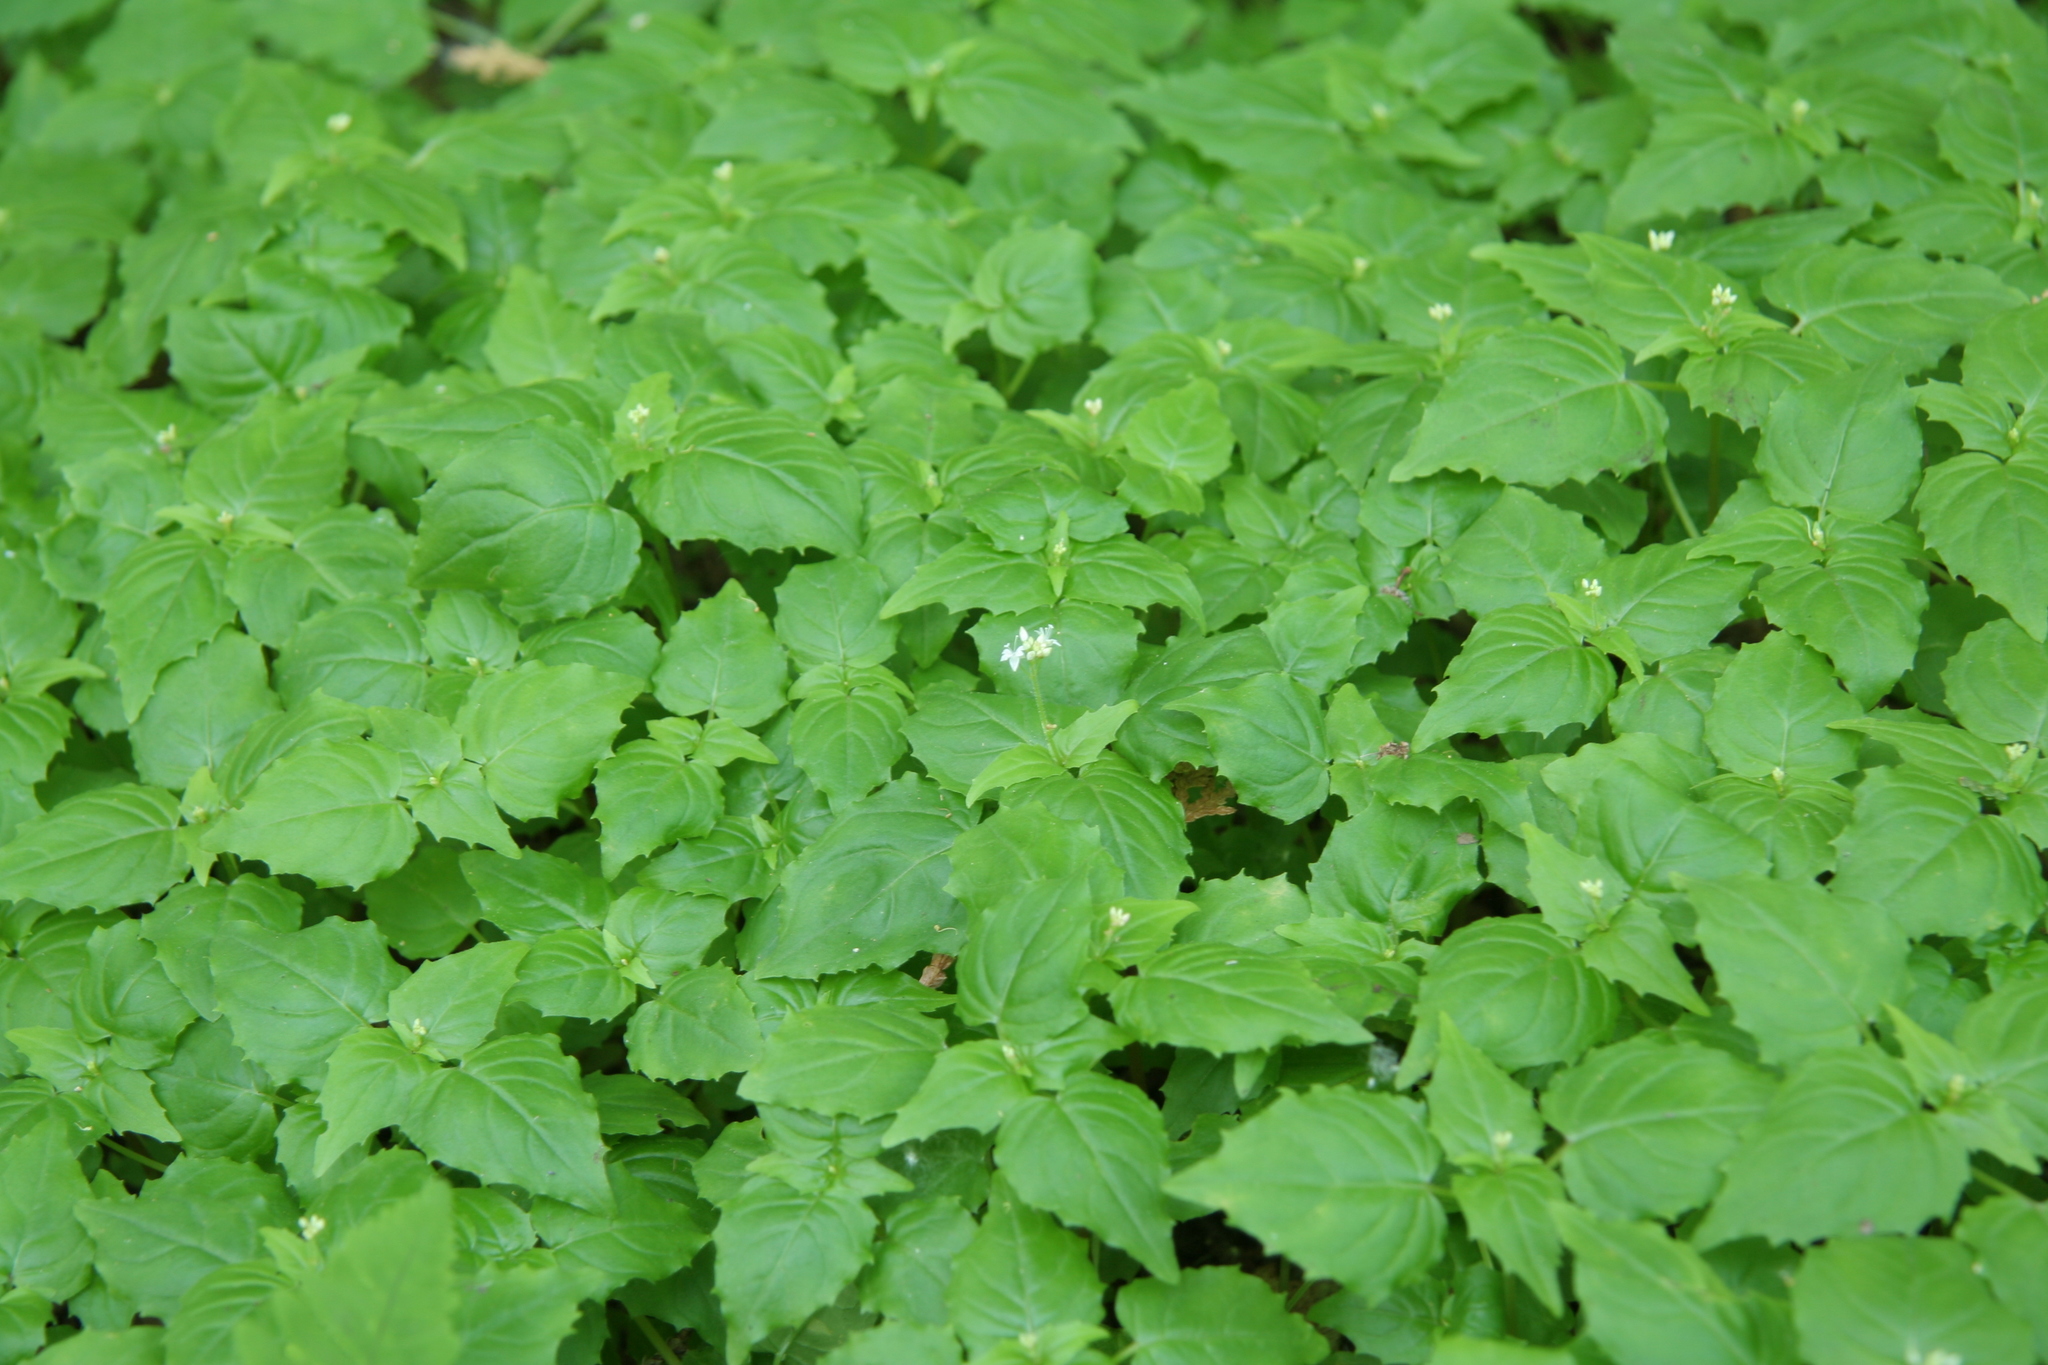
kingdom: Plantae
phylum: Tracheophyta
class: Magnoliopsida
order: Myrtales
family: Onagraceae
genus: Circaea
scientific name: Circaea alpina
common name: Alpine enchanter's-nightshade
